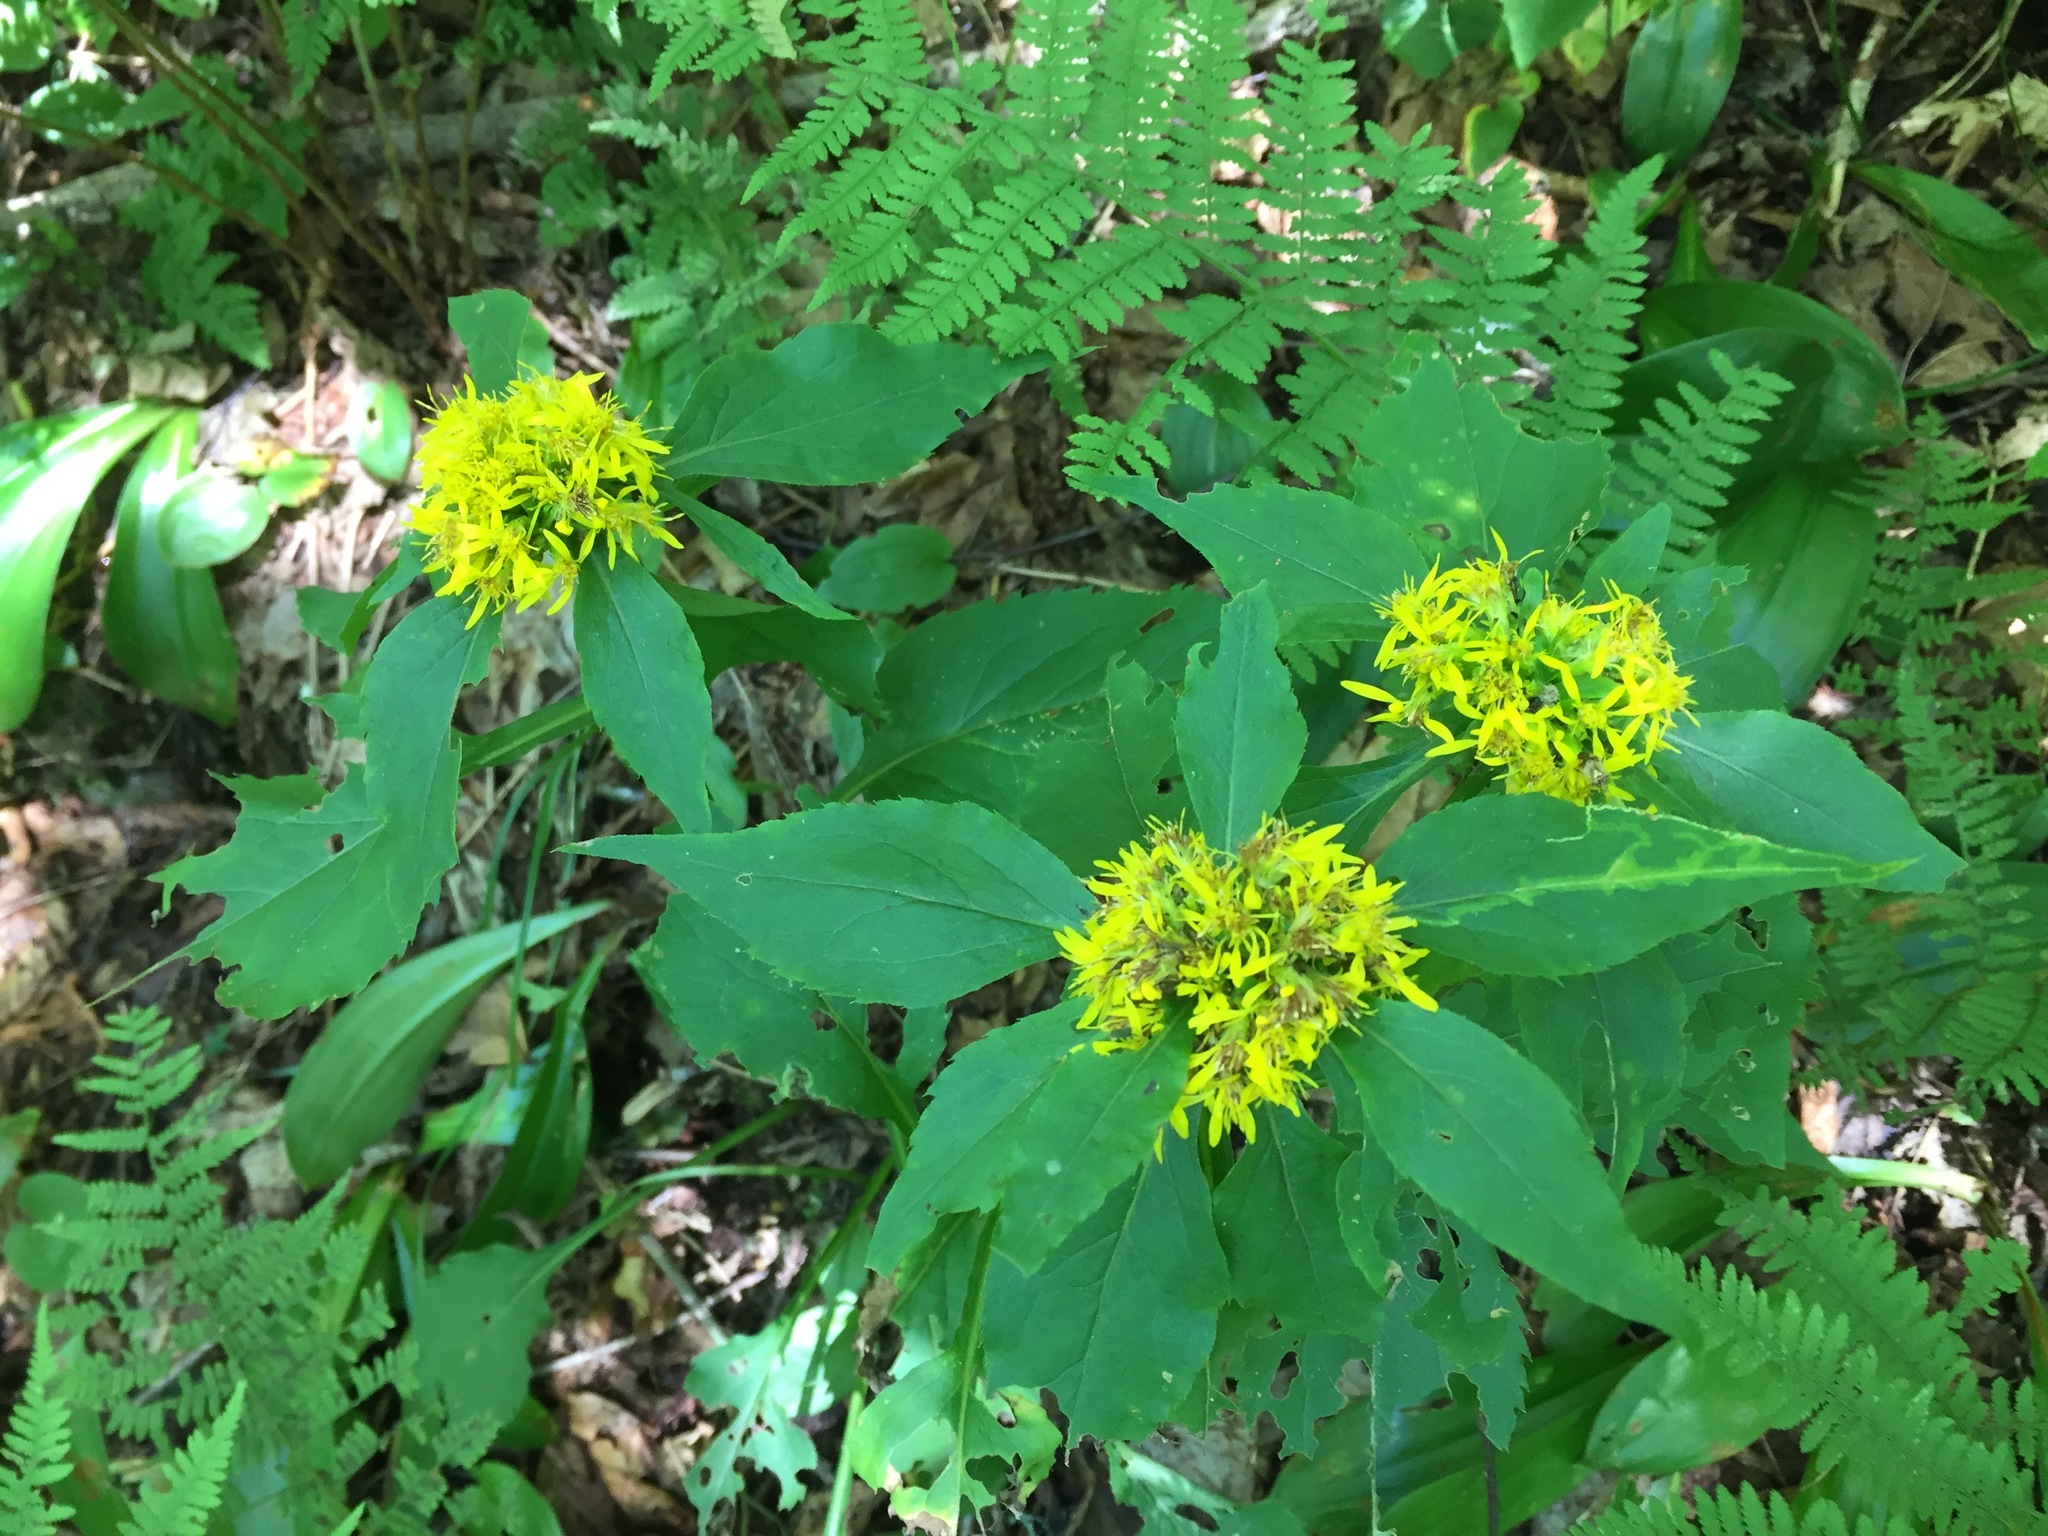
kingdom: Plantae
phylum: Tracheophyta
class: Magnoliopsida
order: Asterales
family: Asteraceae
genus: Solidago
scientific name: Solidago flexicaulis
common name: Zig-zag goldenrod
